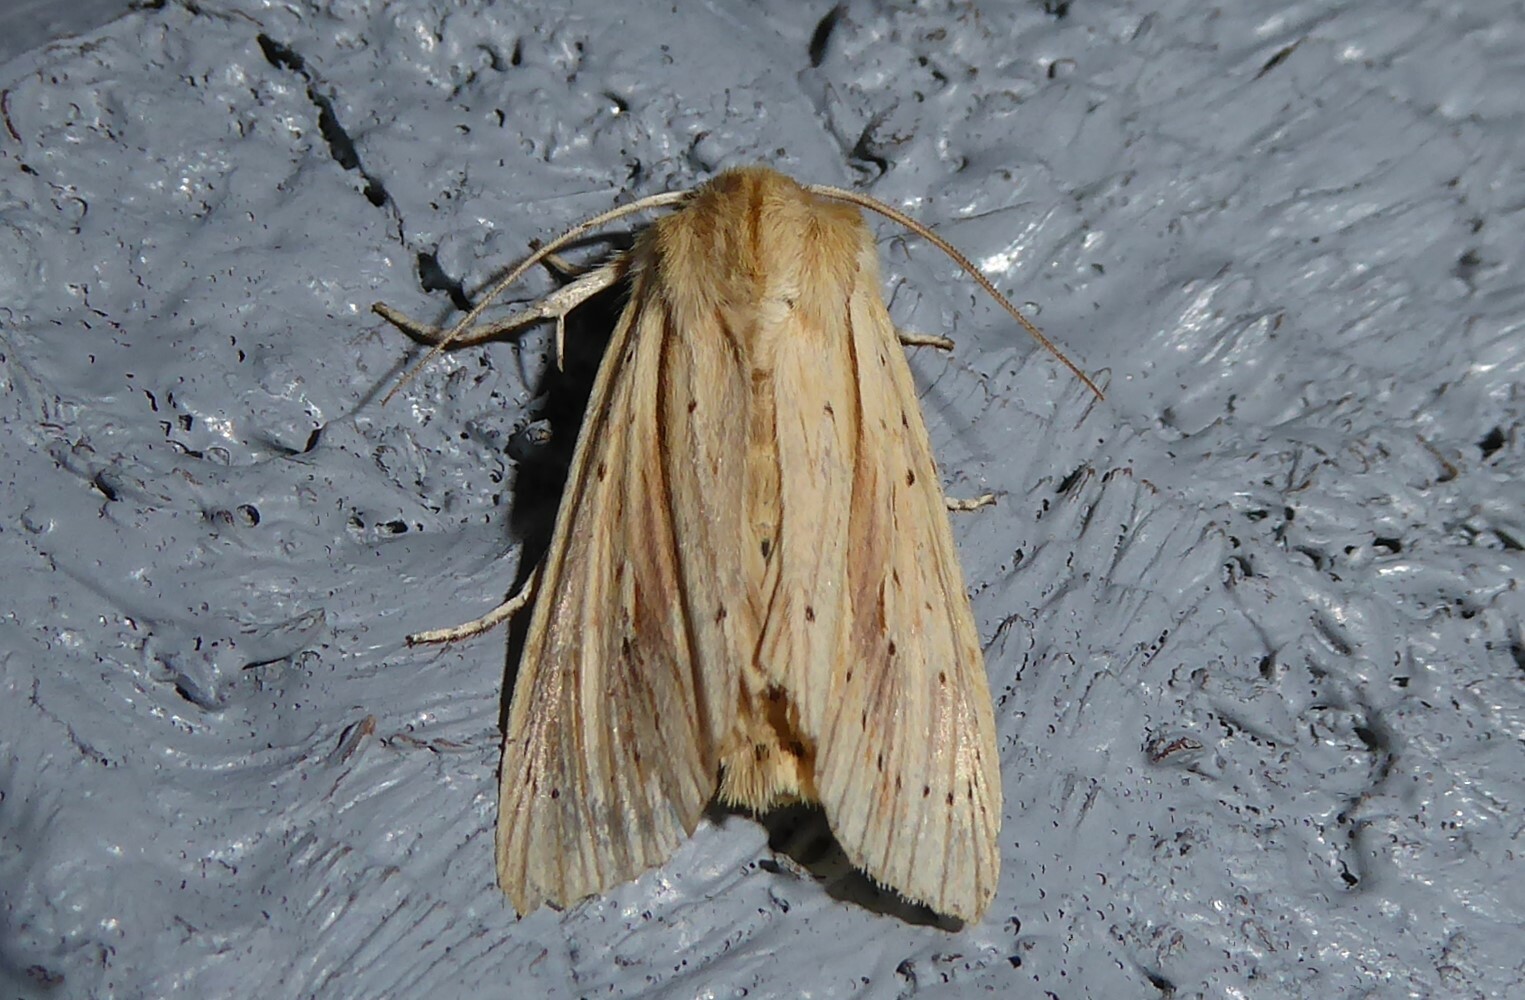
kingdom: Animalia
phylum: Arthropoda
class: Insecta
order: Lepidoptera
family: Noctuidae
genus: Ichneutica
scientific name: Ichneutica semivittata
